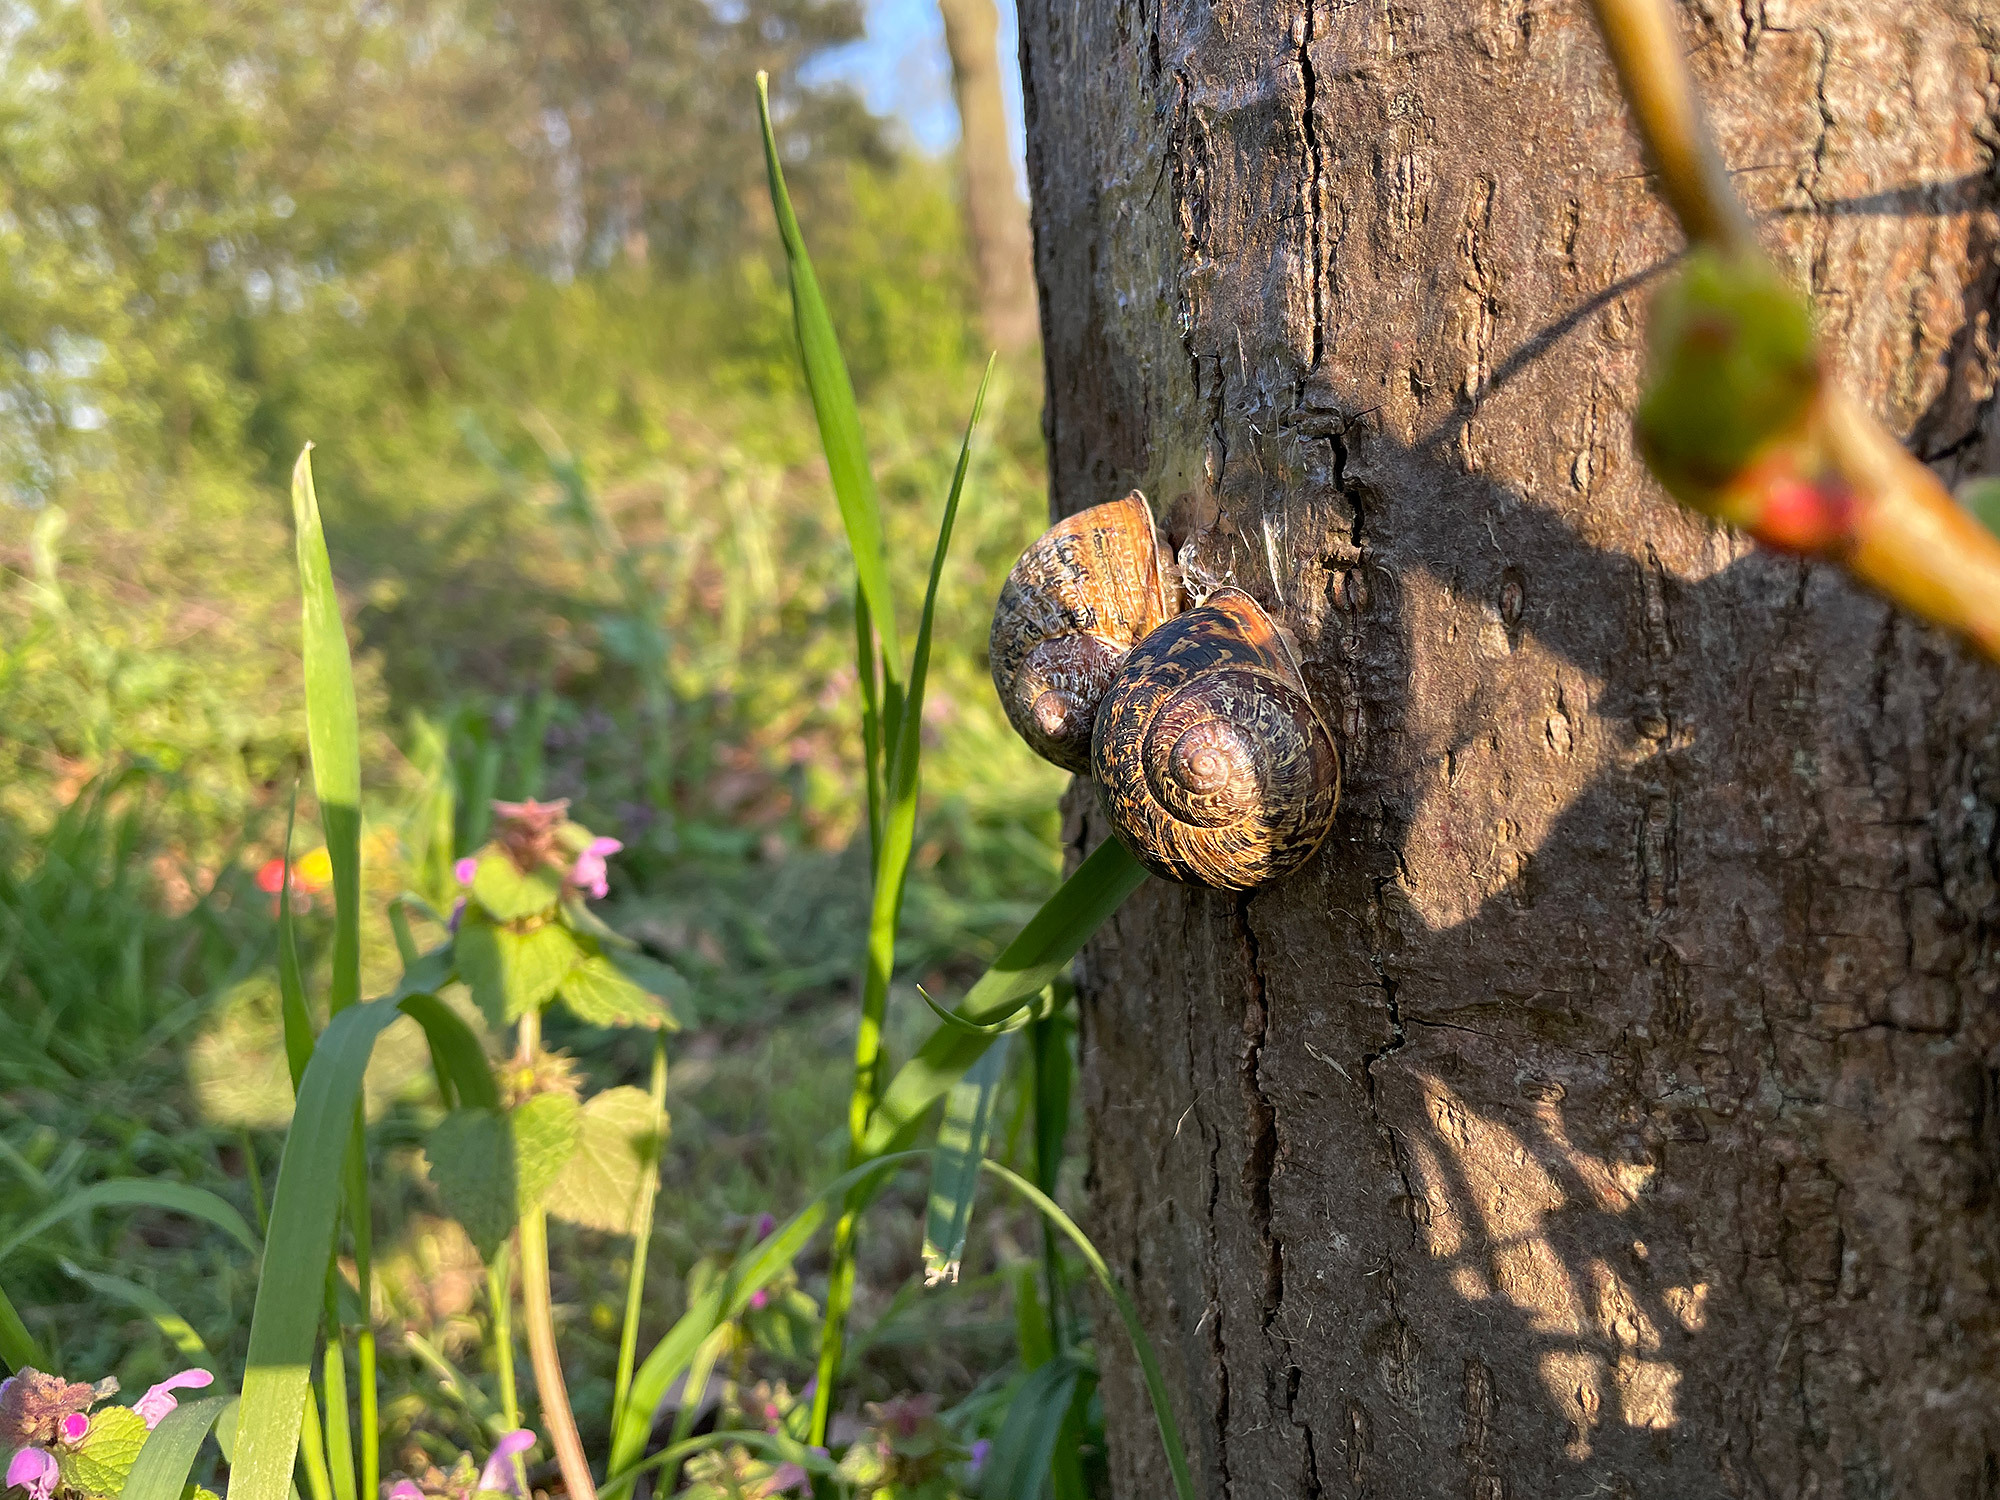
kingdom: Animalia
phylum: Mollusca
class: Gastropoda
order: Stylommatophora
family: Helicidae
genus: Cornu
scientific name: Cornu aspersum
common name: Brown garden snail
